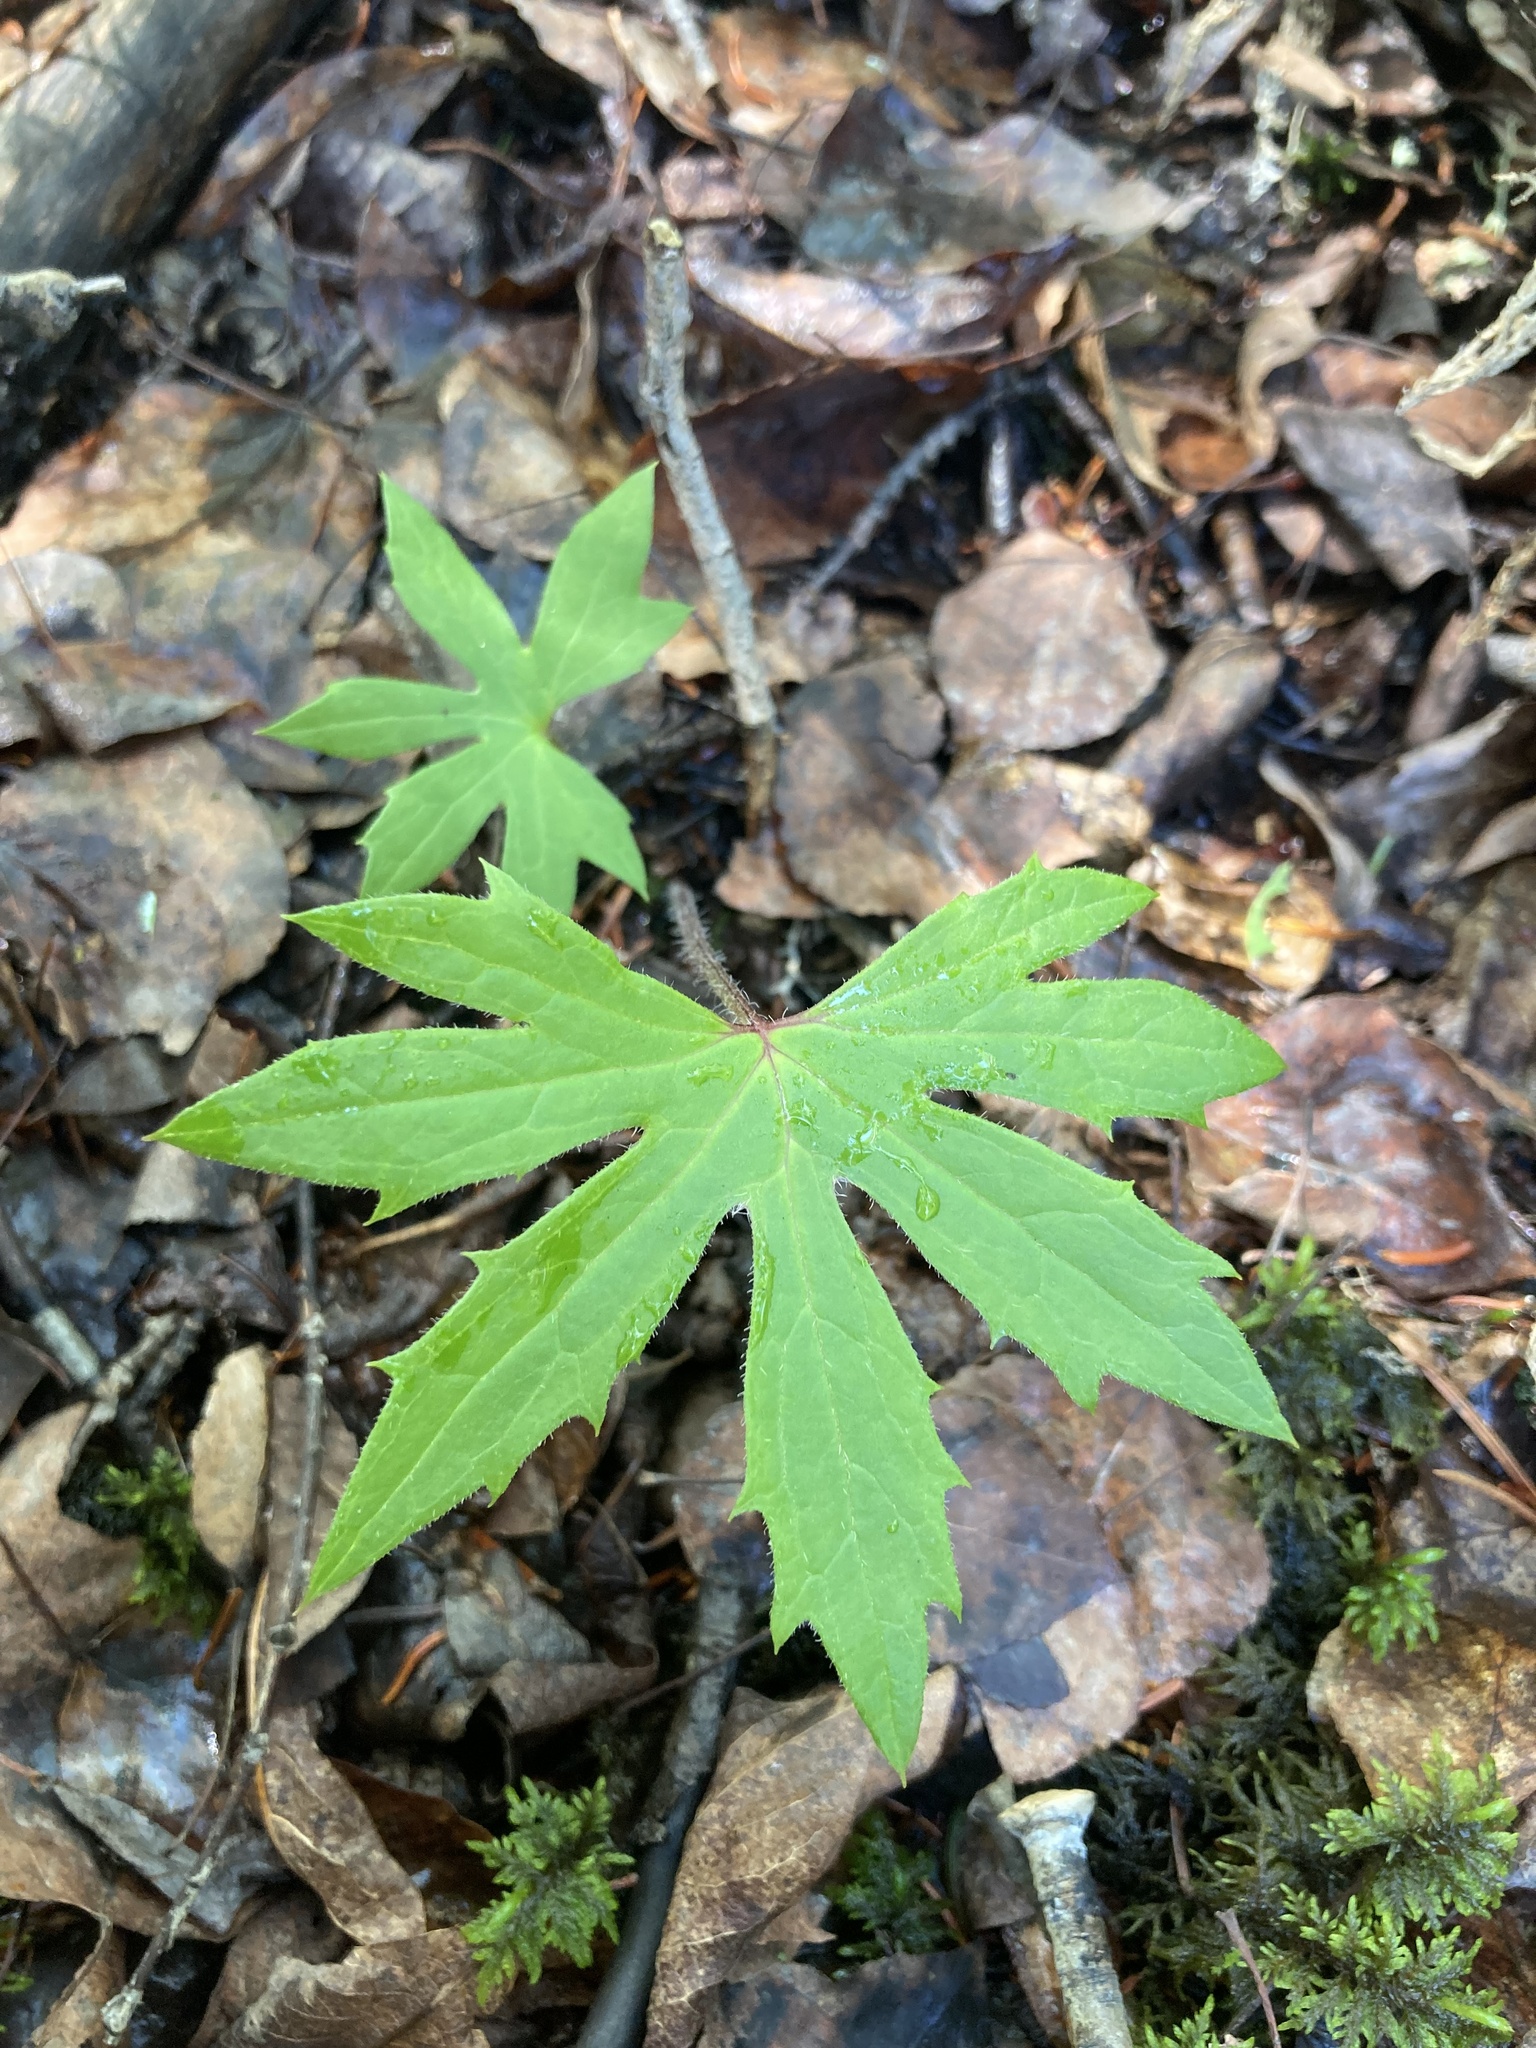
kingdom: Plantae
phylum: Tracheophyta
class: Magnoliopsida
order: Asterales
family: Asteraceae
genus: Petasites
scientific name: Petasites frigidus
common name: Arctic butterbur
